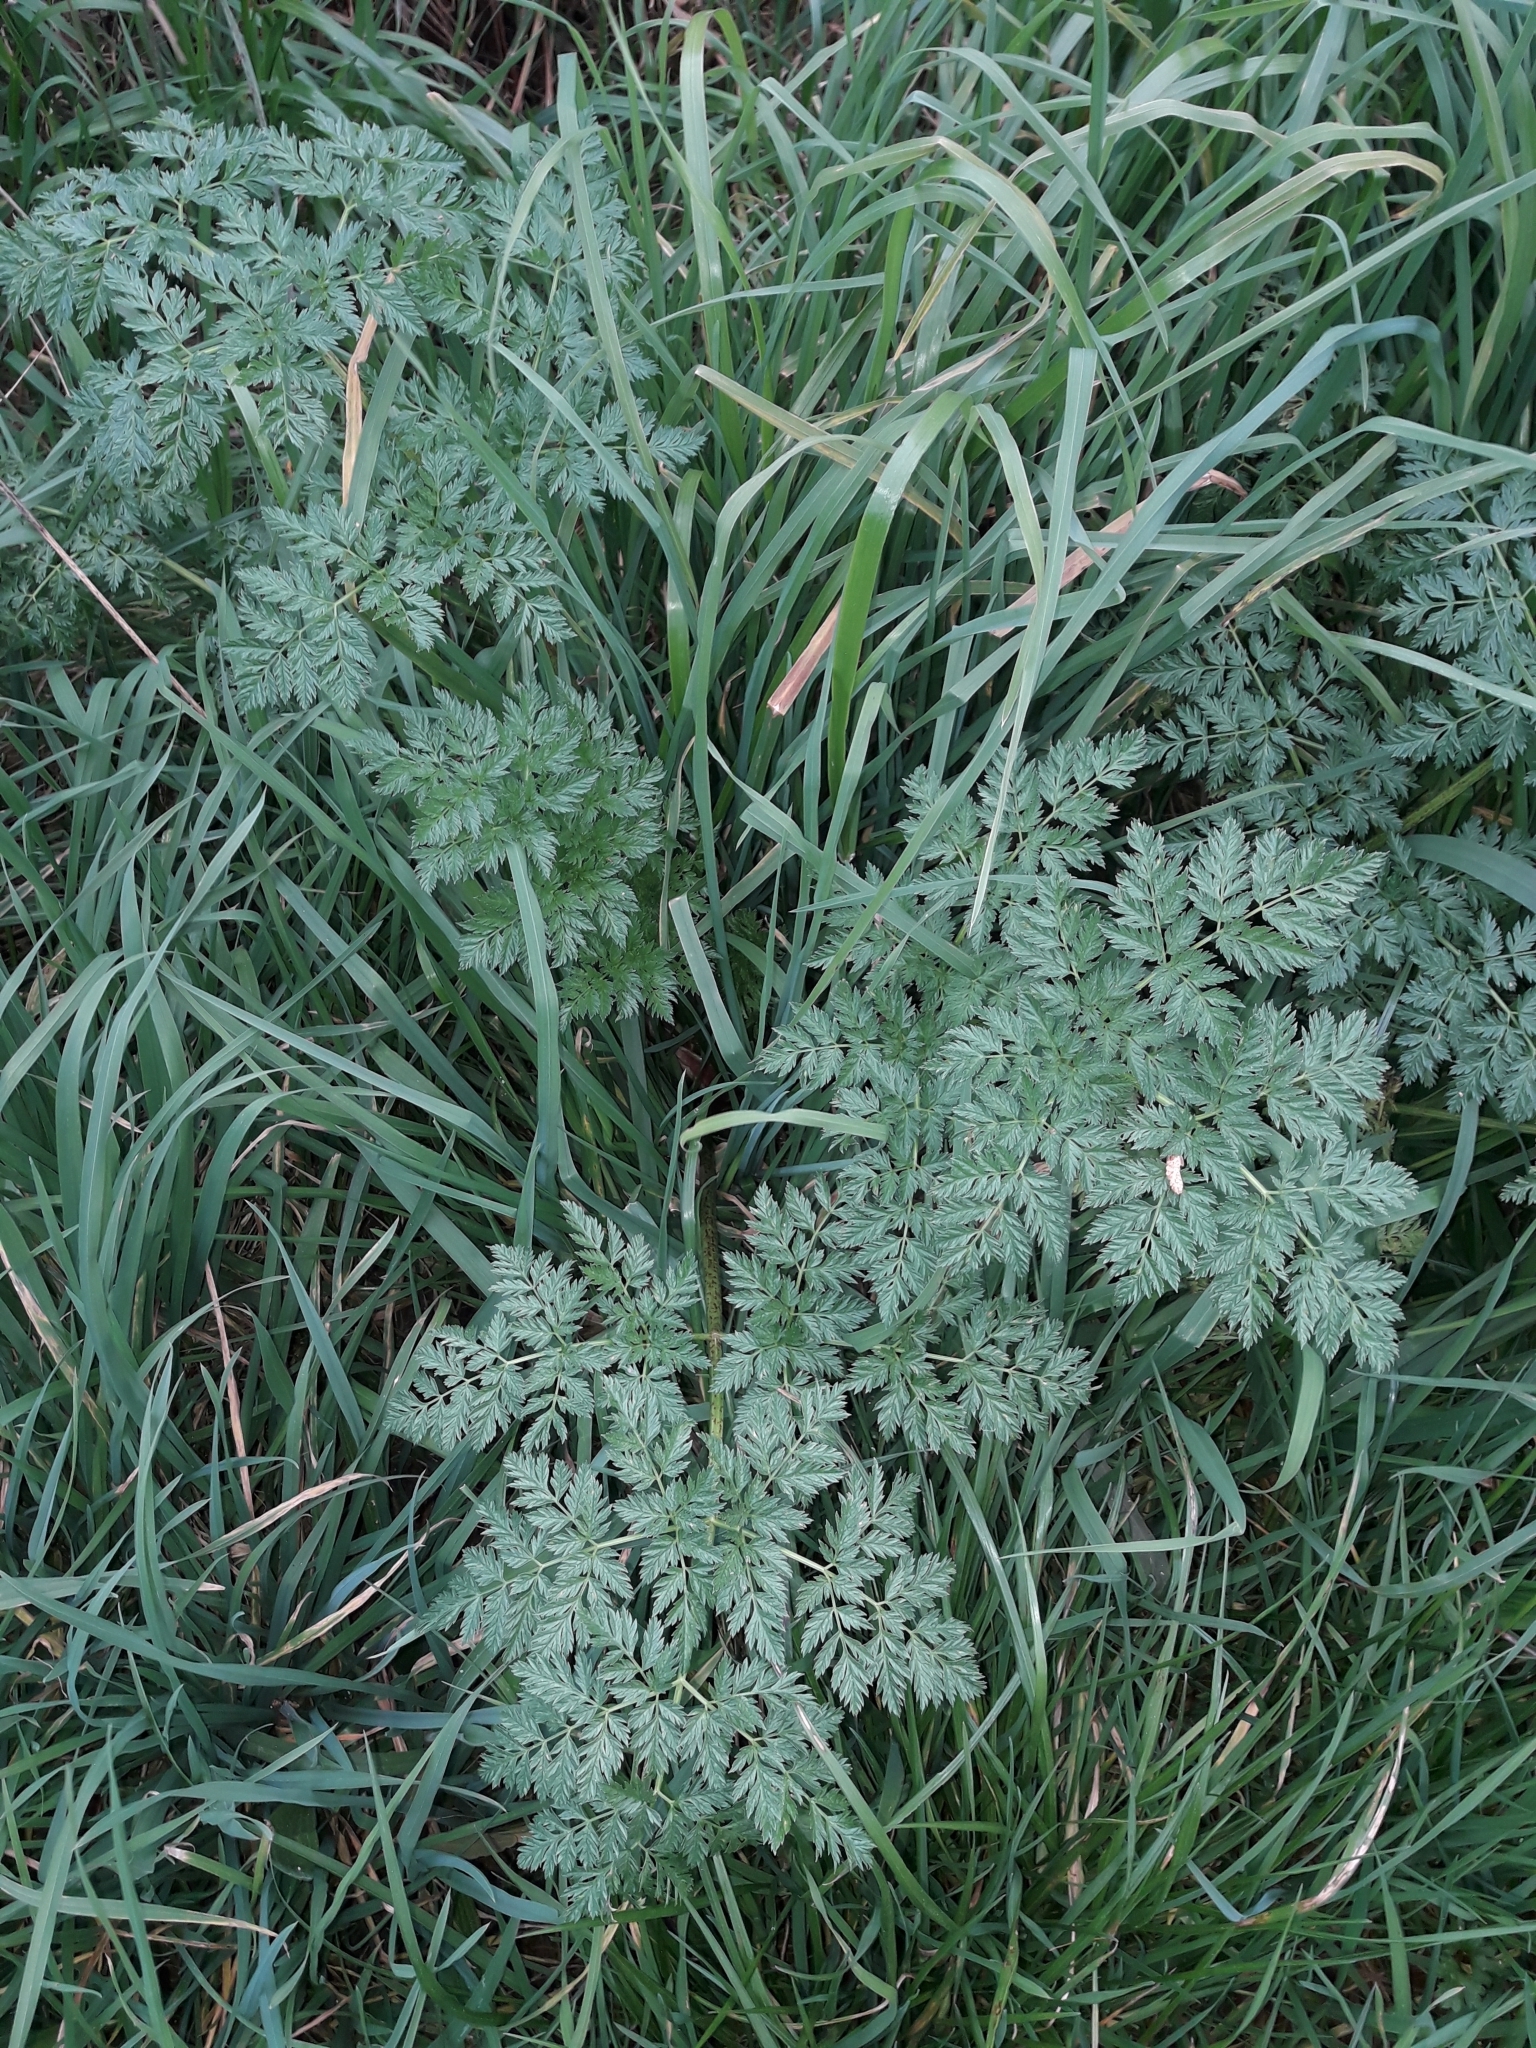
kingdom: Plantae
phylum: Tracheophyta
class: Magnoliopsida
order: Apiales
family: Apiaceae
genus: Conium
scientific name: Conium maculatum
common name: Hemlock
